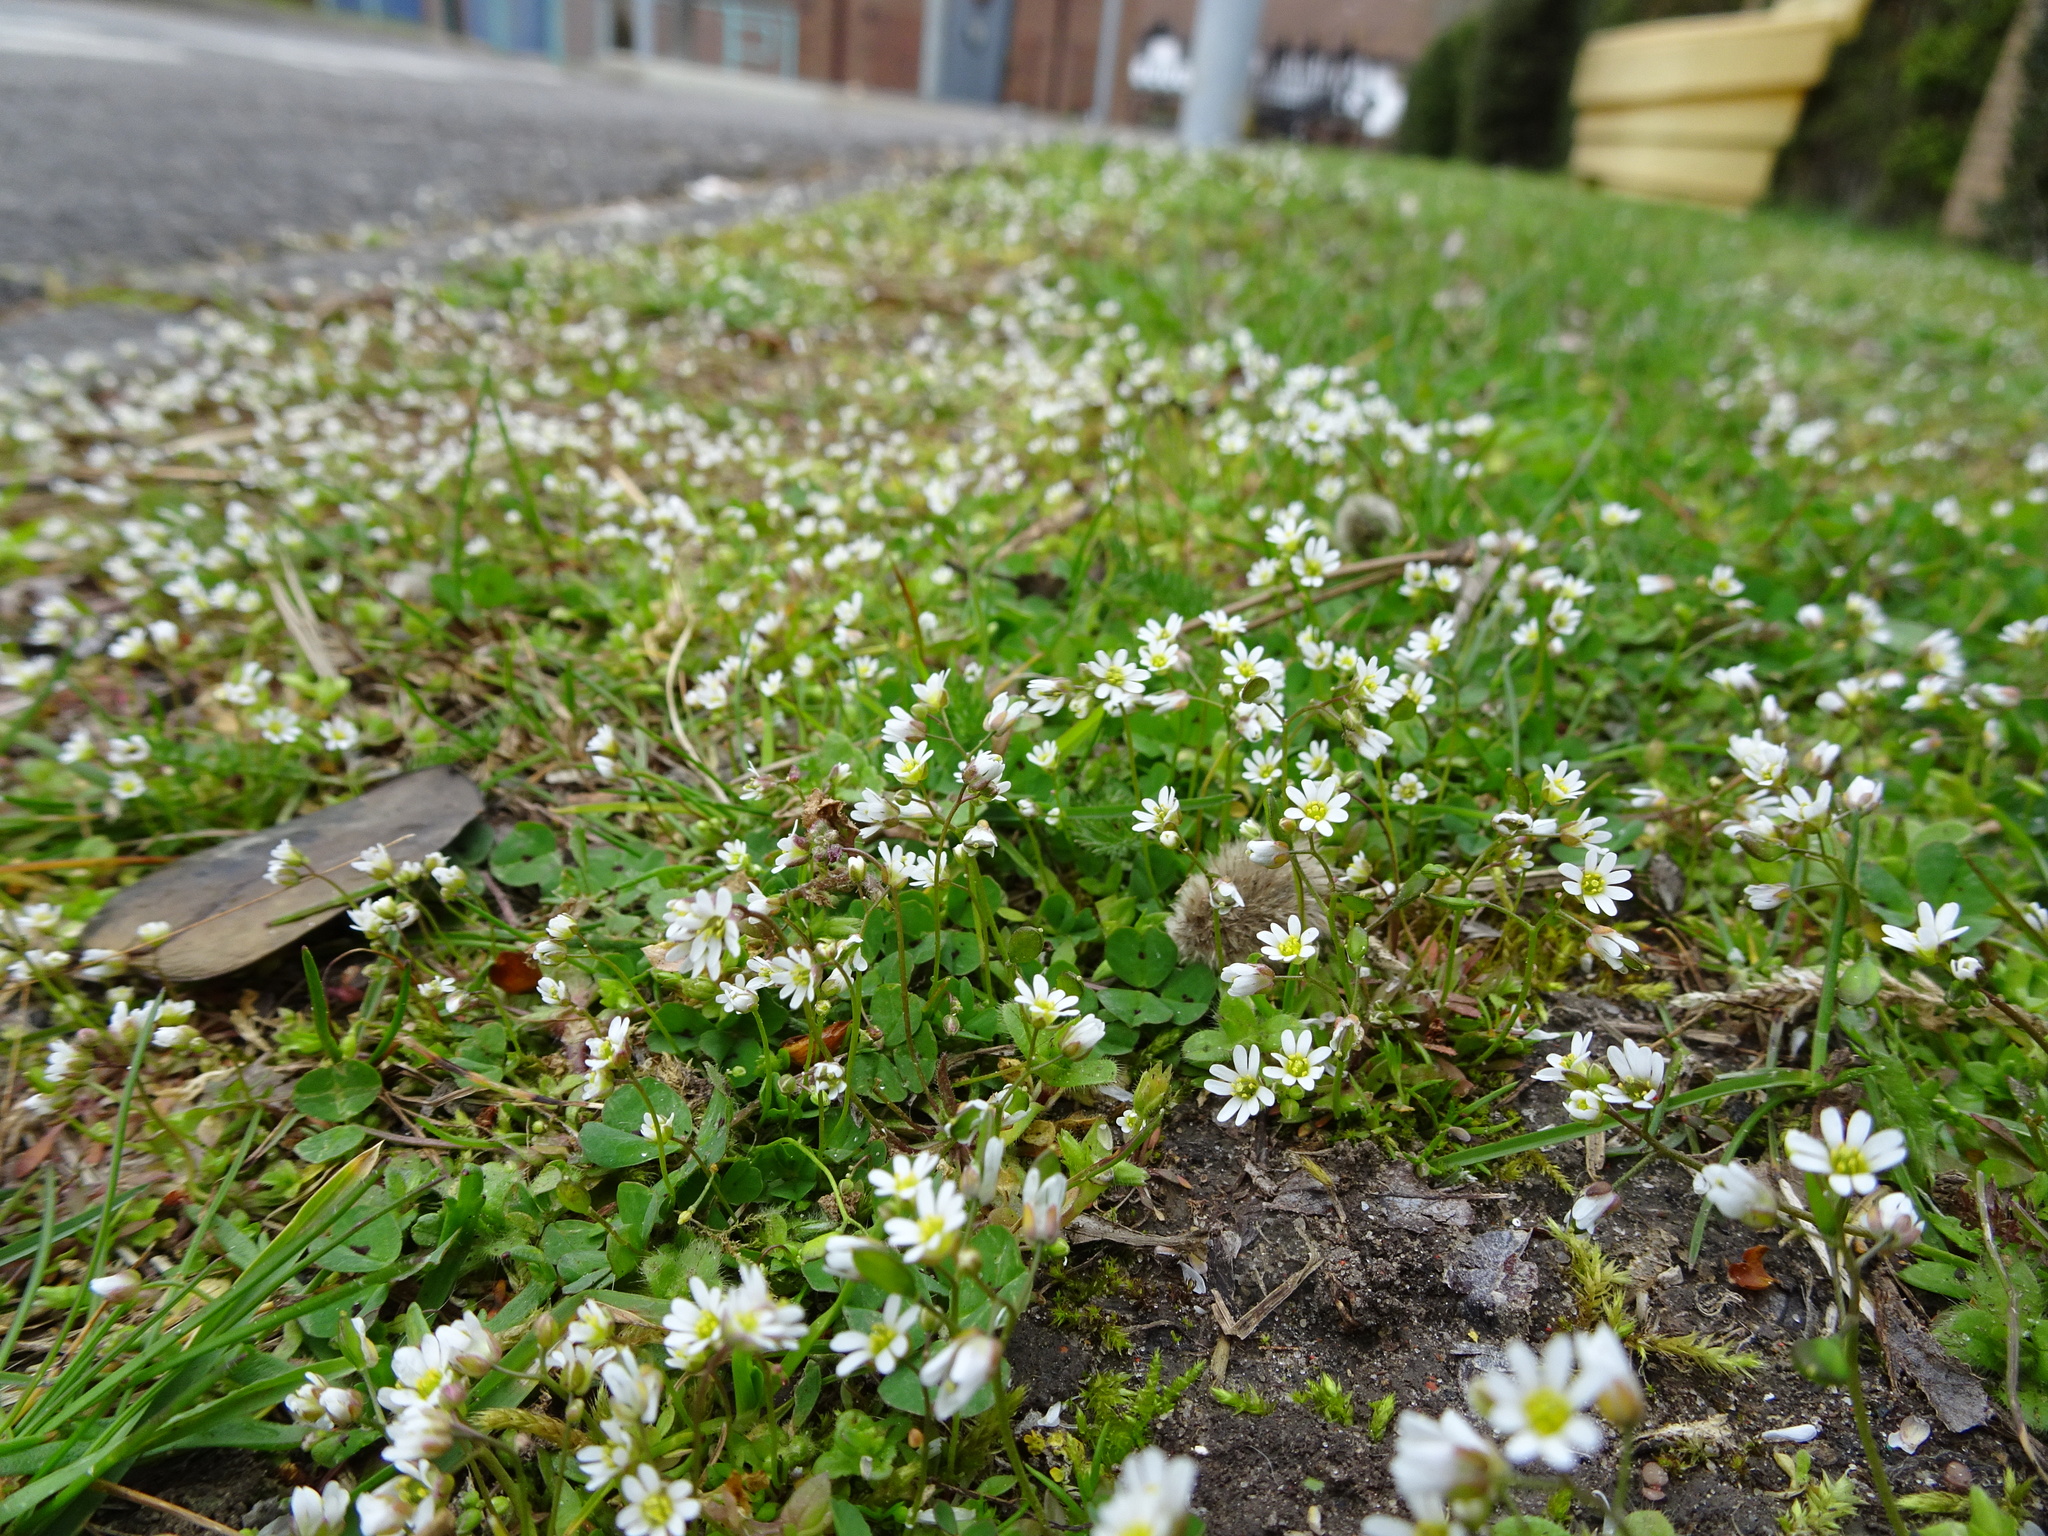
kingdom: Plantae
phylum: Tracheophyta
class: Magnoliopsida
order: Brassicales
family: Brassicaceae
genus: Draba
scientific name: Draba verna
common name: Spring draba
